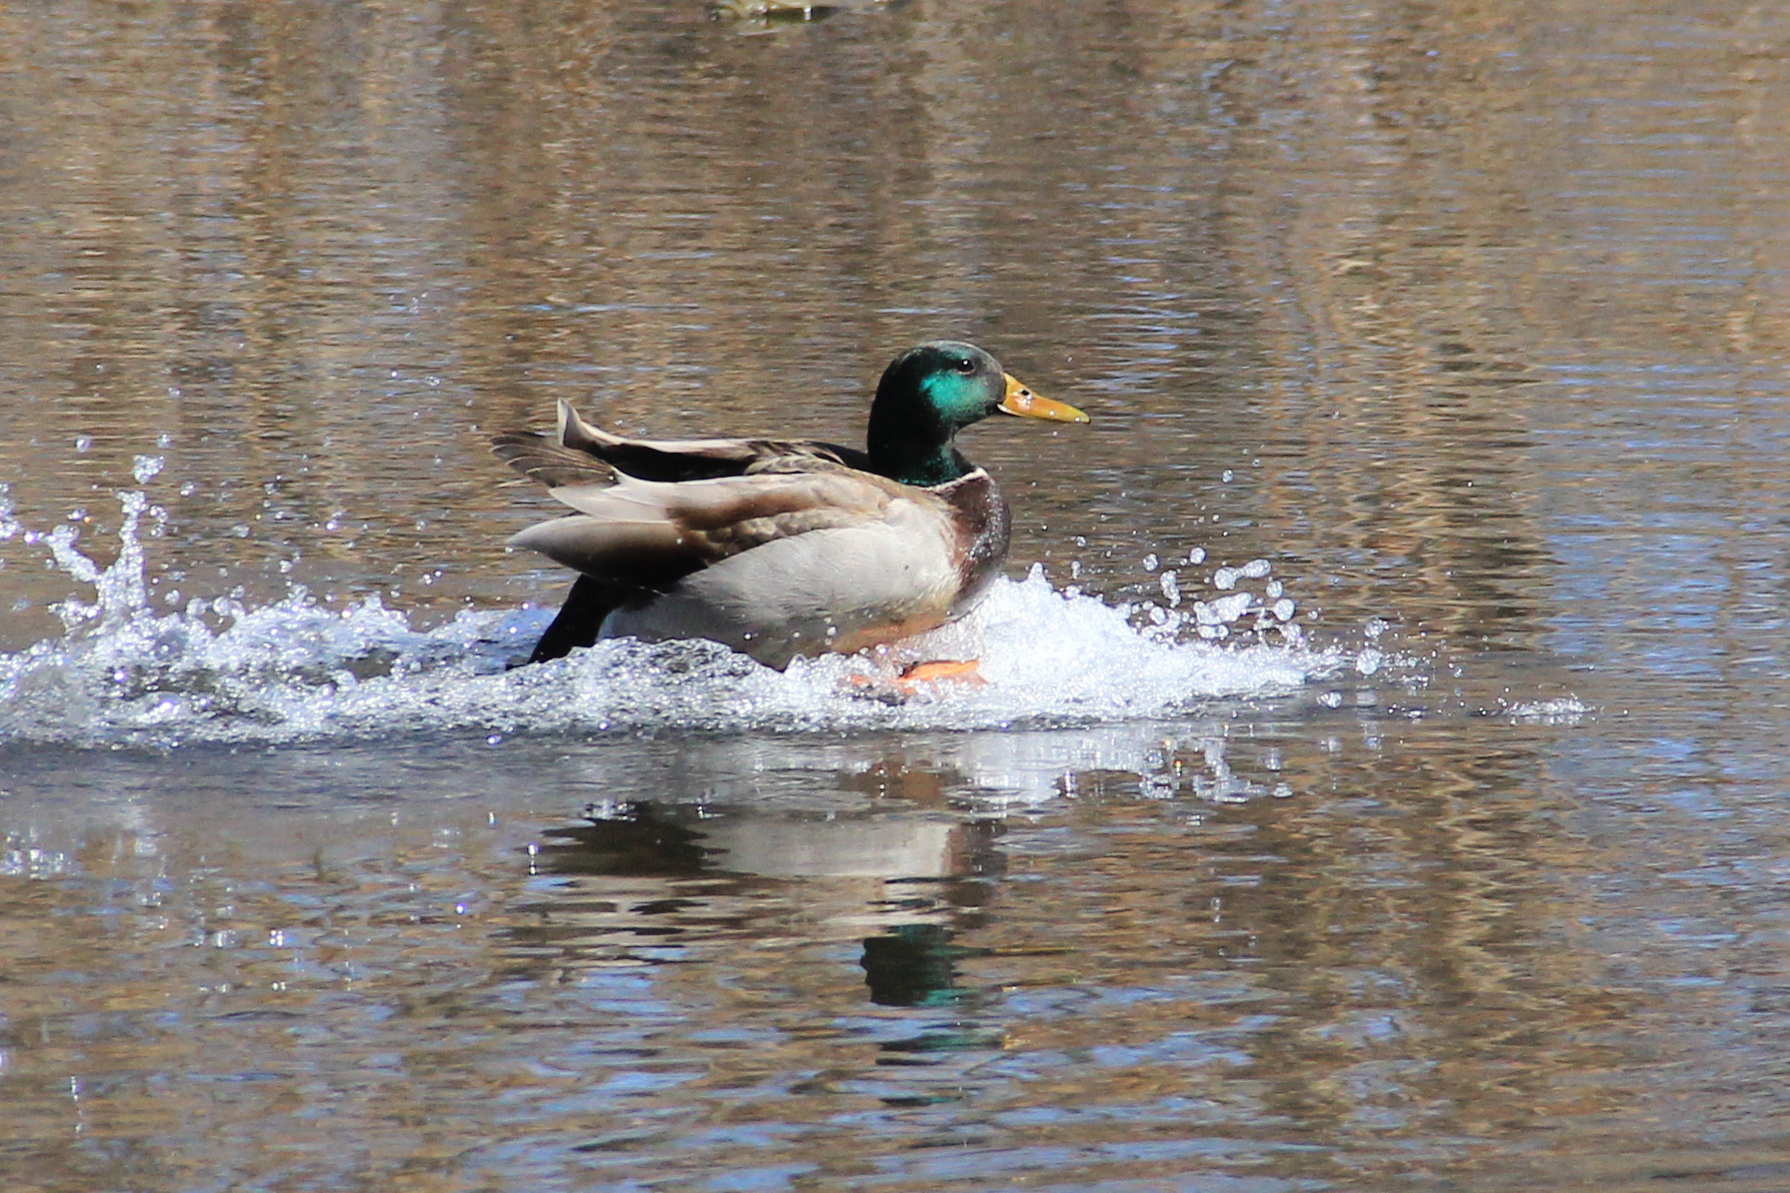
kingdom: Animalia
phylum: Chordata
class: Aves
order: Anseriformes
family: Anatidae
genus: Anas
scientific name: Anas platyrhynchos
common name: Mallard
